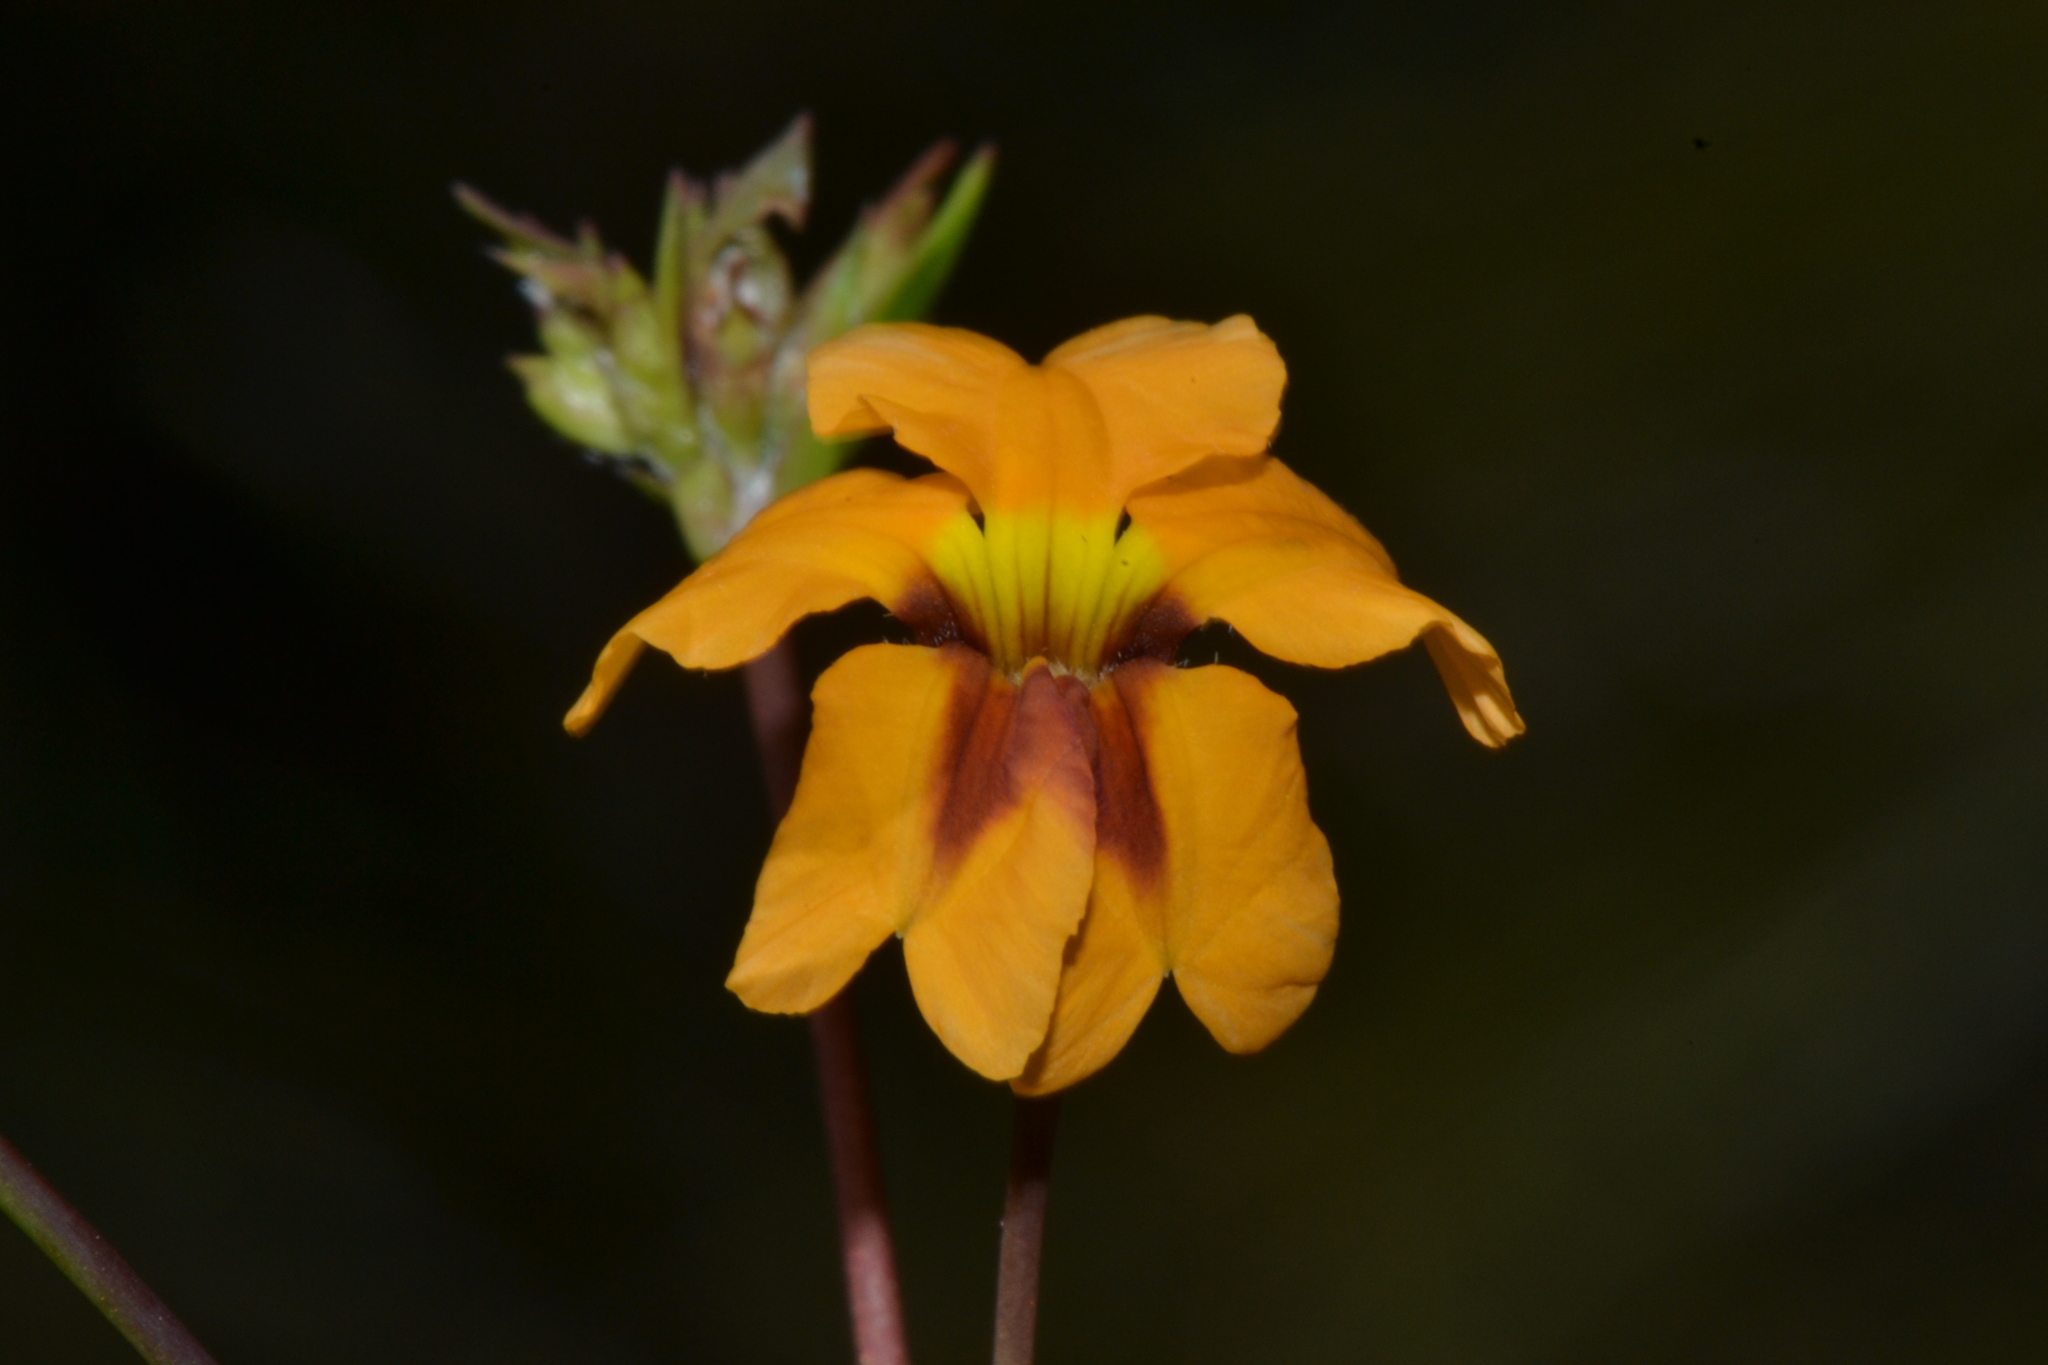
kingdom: Plantae
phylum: Tracheophyta
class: Magnoliopsida
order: Asterales
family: Goodeniaceae
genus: Goodenia
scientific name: Goodenia trinervis
